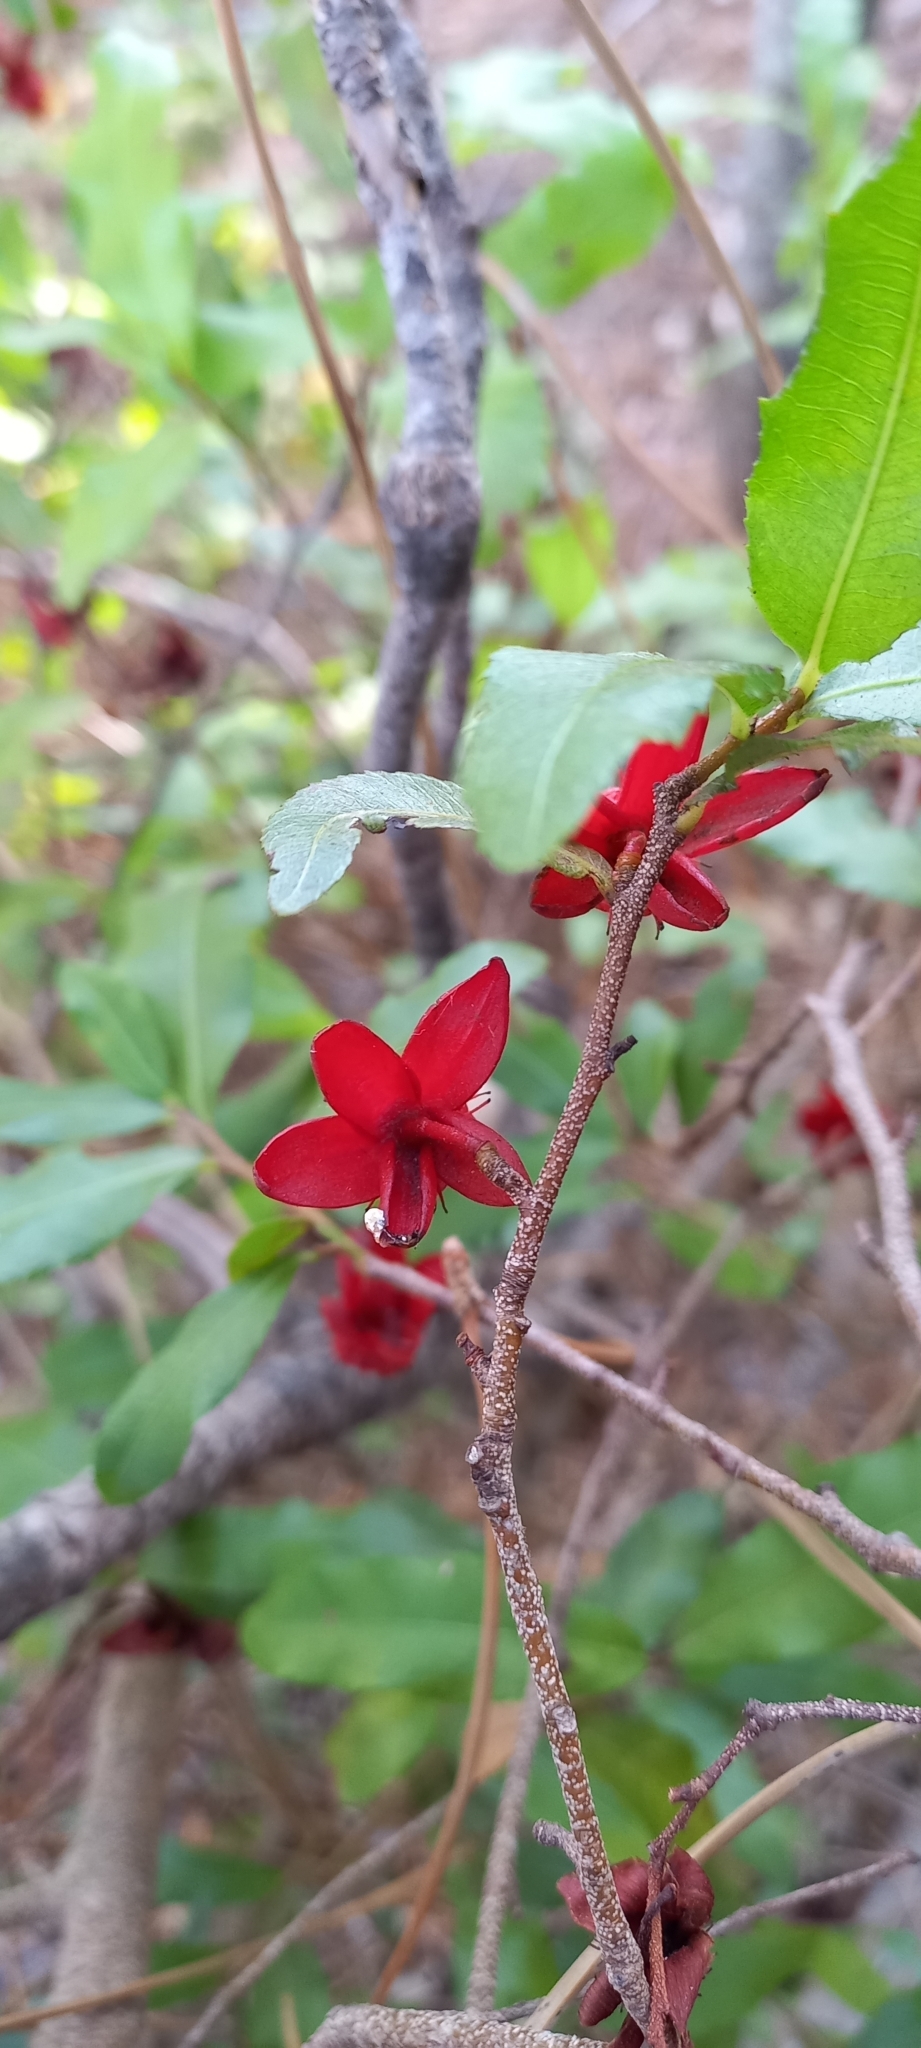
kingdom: Plantae
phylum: Tracheophyta
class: Magnoliopsida
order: Malpighiales
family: Ochnaceae
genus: Ochna
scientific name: Ochna serrulata
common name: Mickey mouse plant
